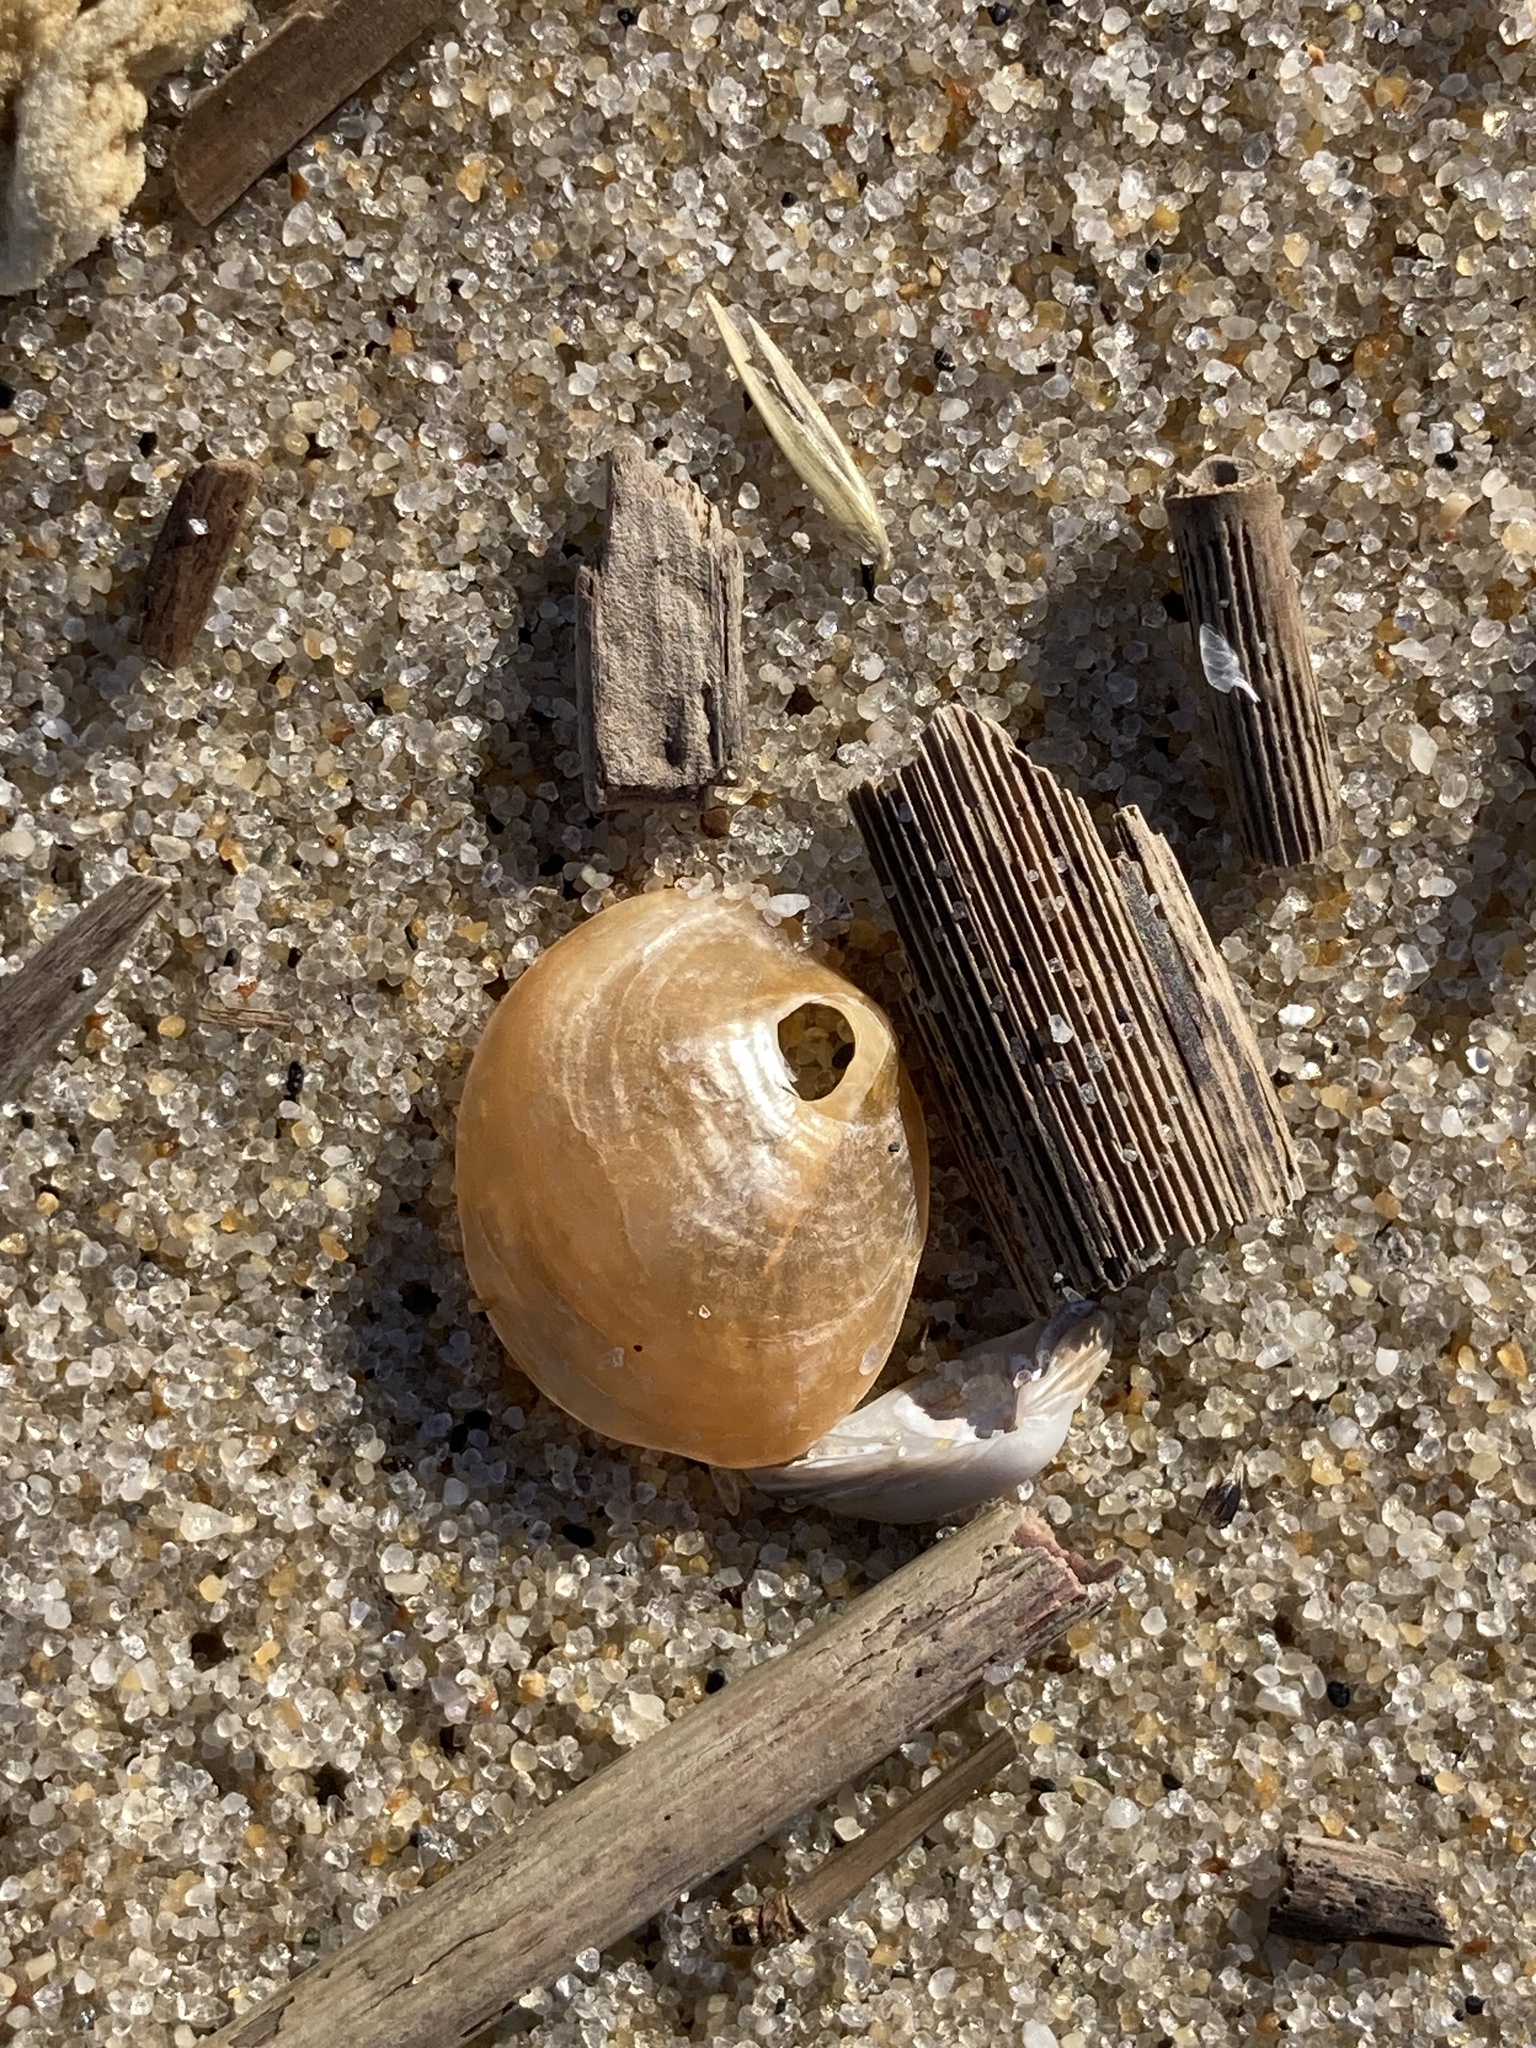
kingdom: Animalia
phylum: Mollusca
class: Bivalvia
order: Pectinida
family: Anomiidae
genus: Anomia
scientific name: Anomia simplex
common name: Common jingle shell
